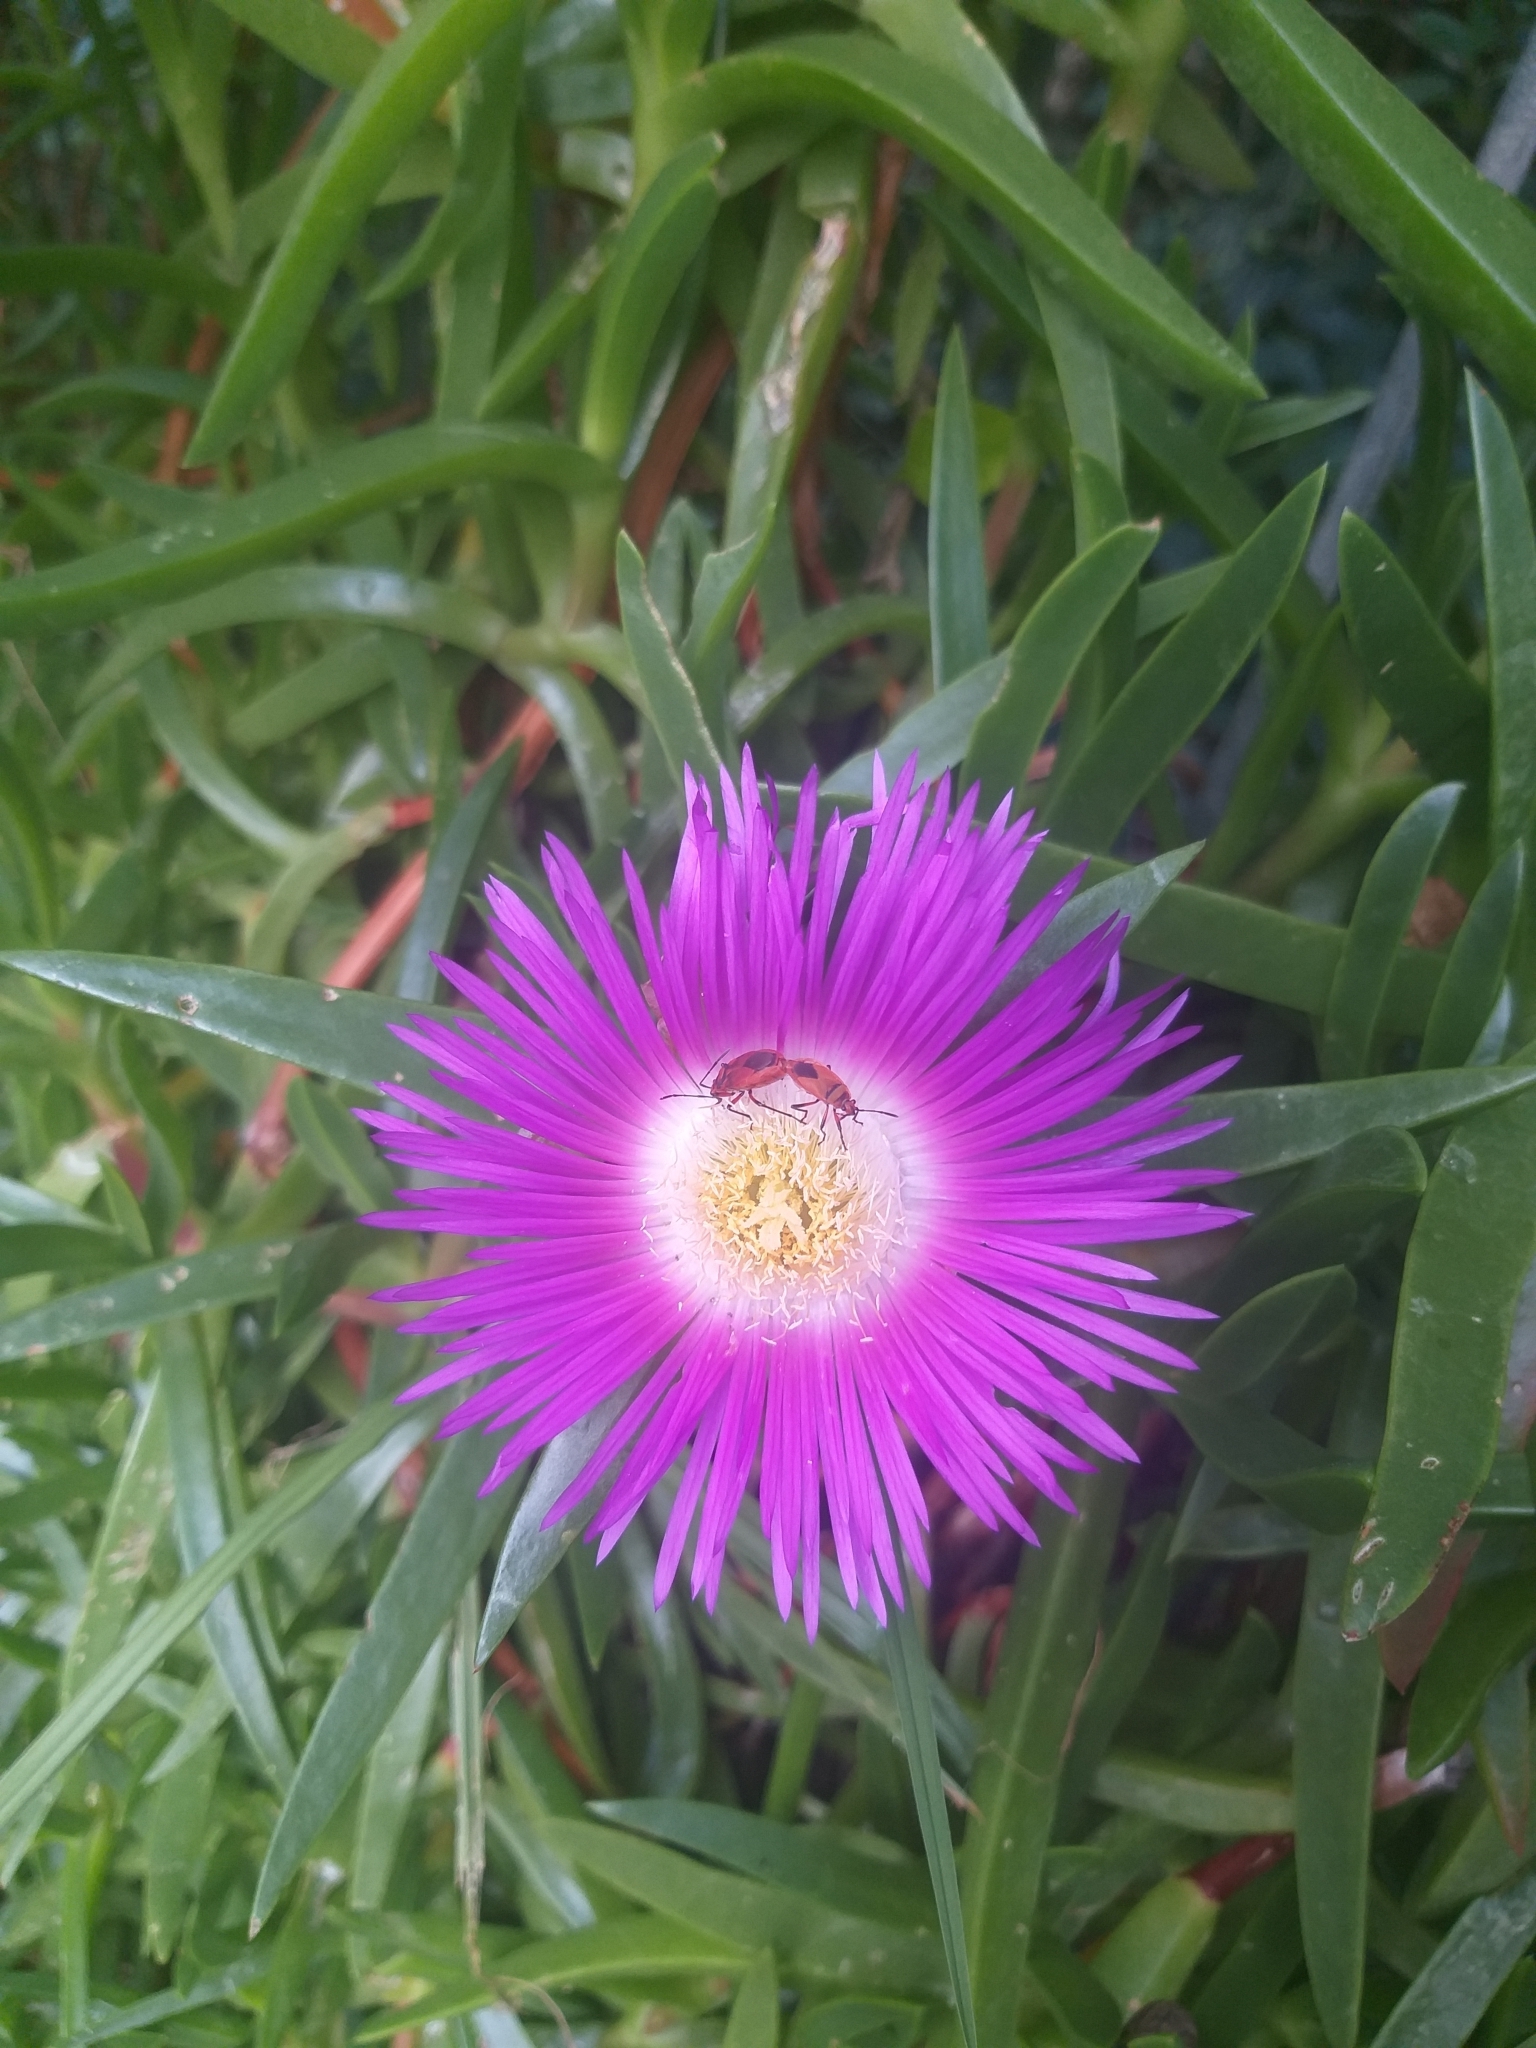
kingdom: Animalia
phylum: Arthropoda
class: Insecta
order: Hemiptera
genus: Cenaeus
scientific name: Cenaeus
